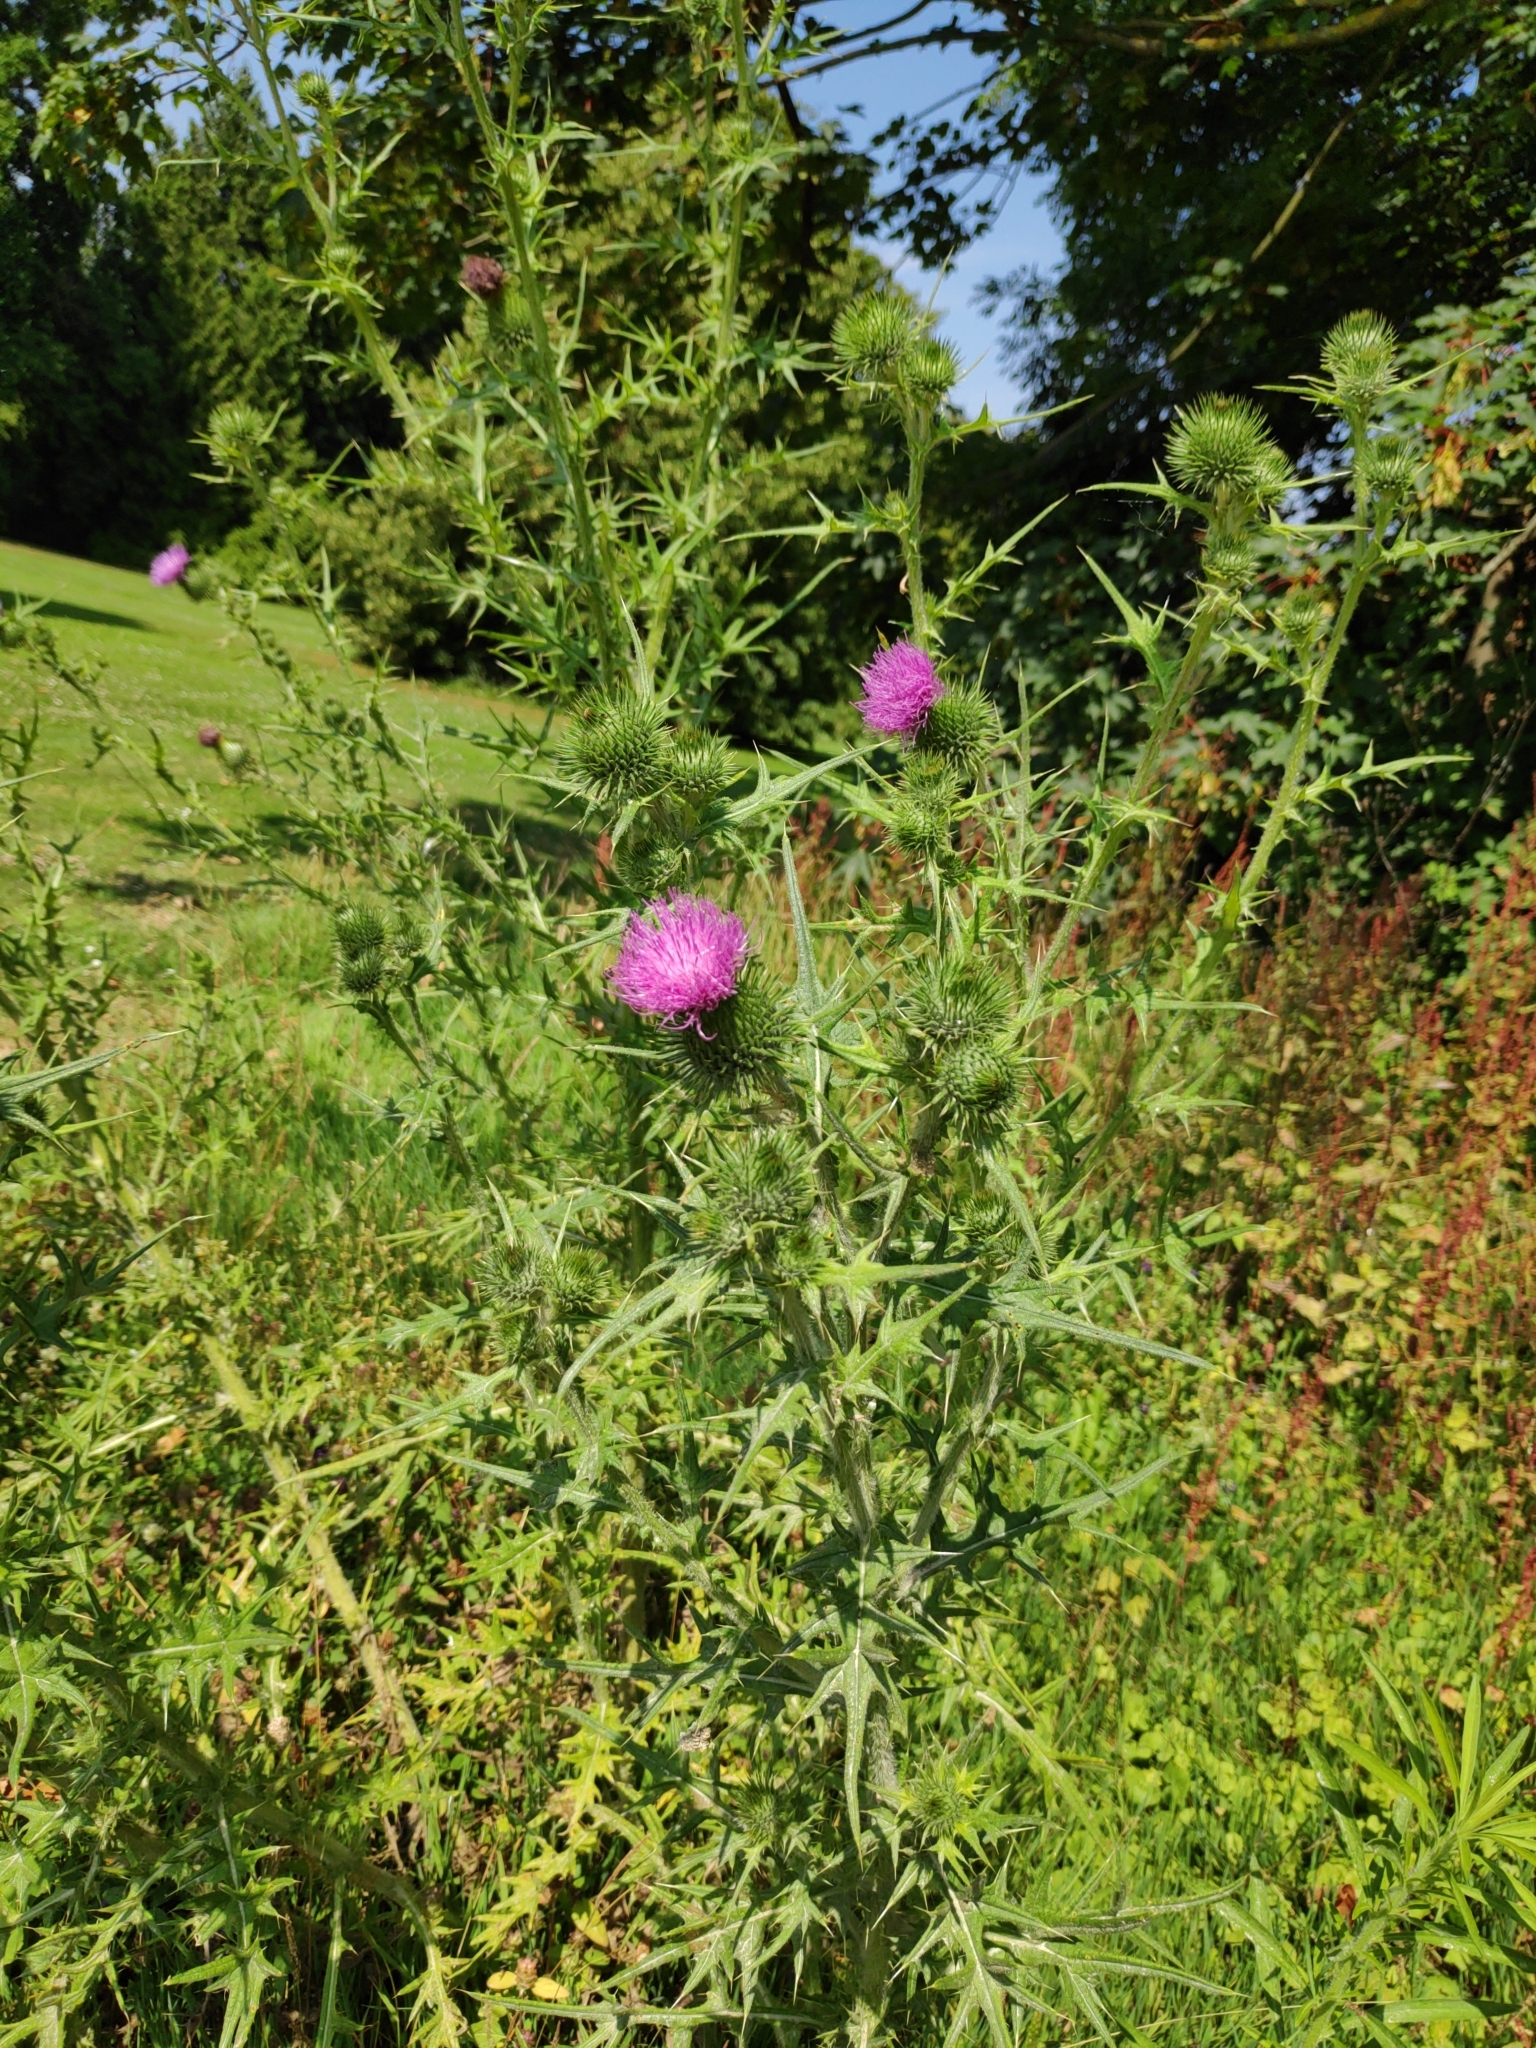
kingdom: Plantae
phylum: Tracheophyta
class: Magnoliopsida
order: Asterales
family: Asteraceae
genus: Cirsium
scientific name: Cirsium vulgare
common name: Bull thistle
